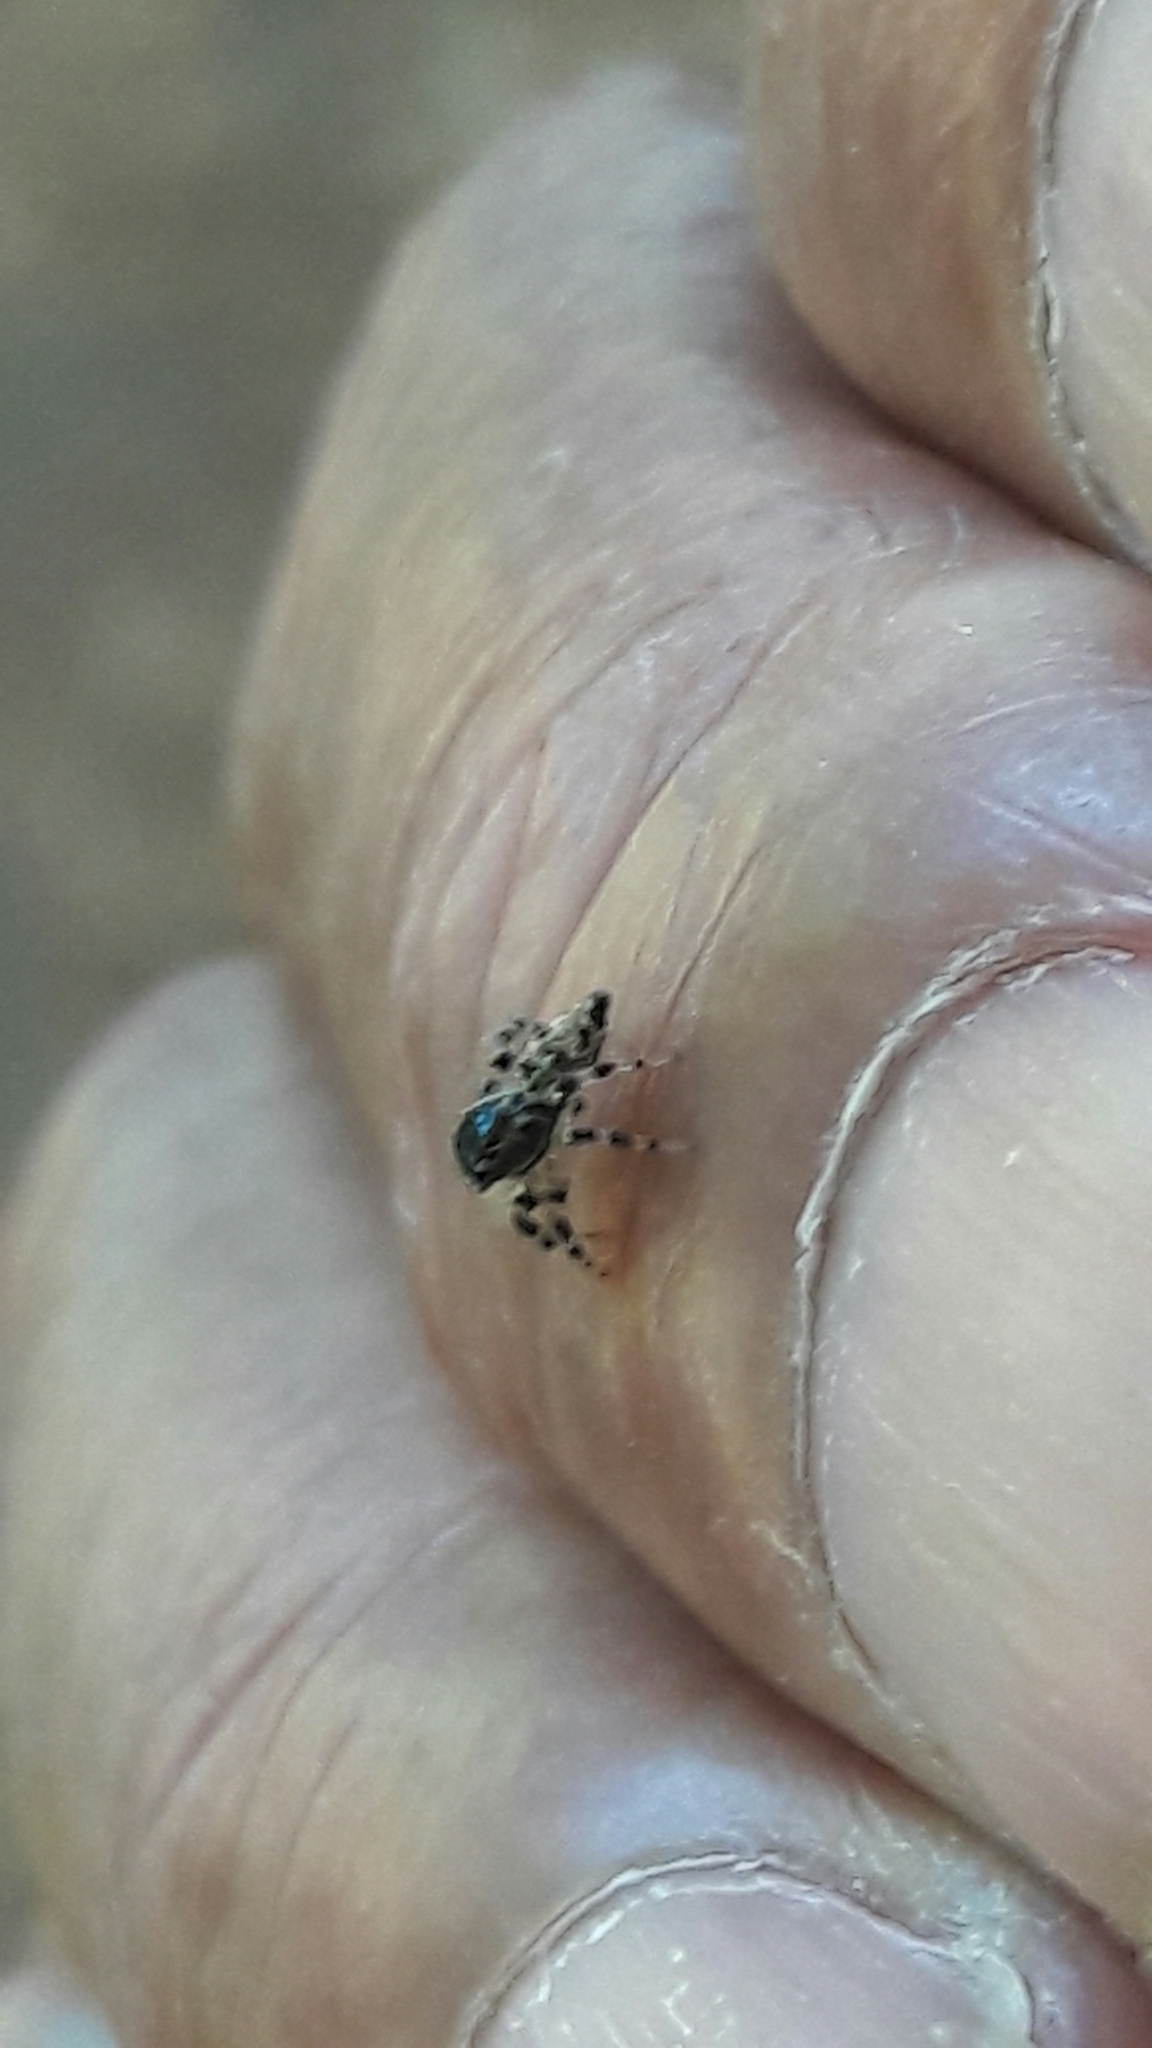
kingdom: Animalia
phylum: Arthropoda
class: Arachnida
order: Araneae
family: Salticidae
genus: Sumampattus
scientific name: Sumampattus quinqueradiatus
